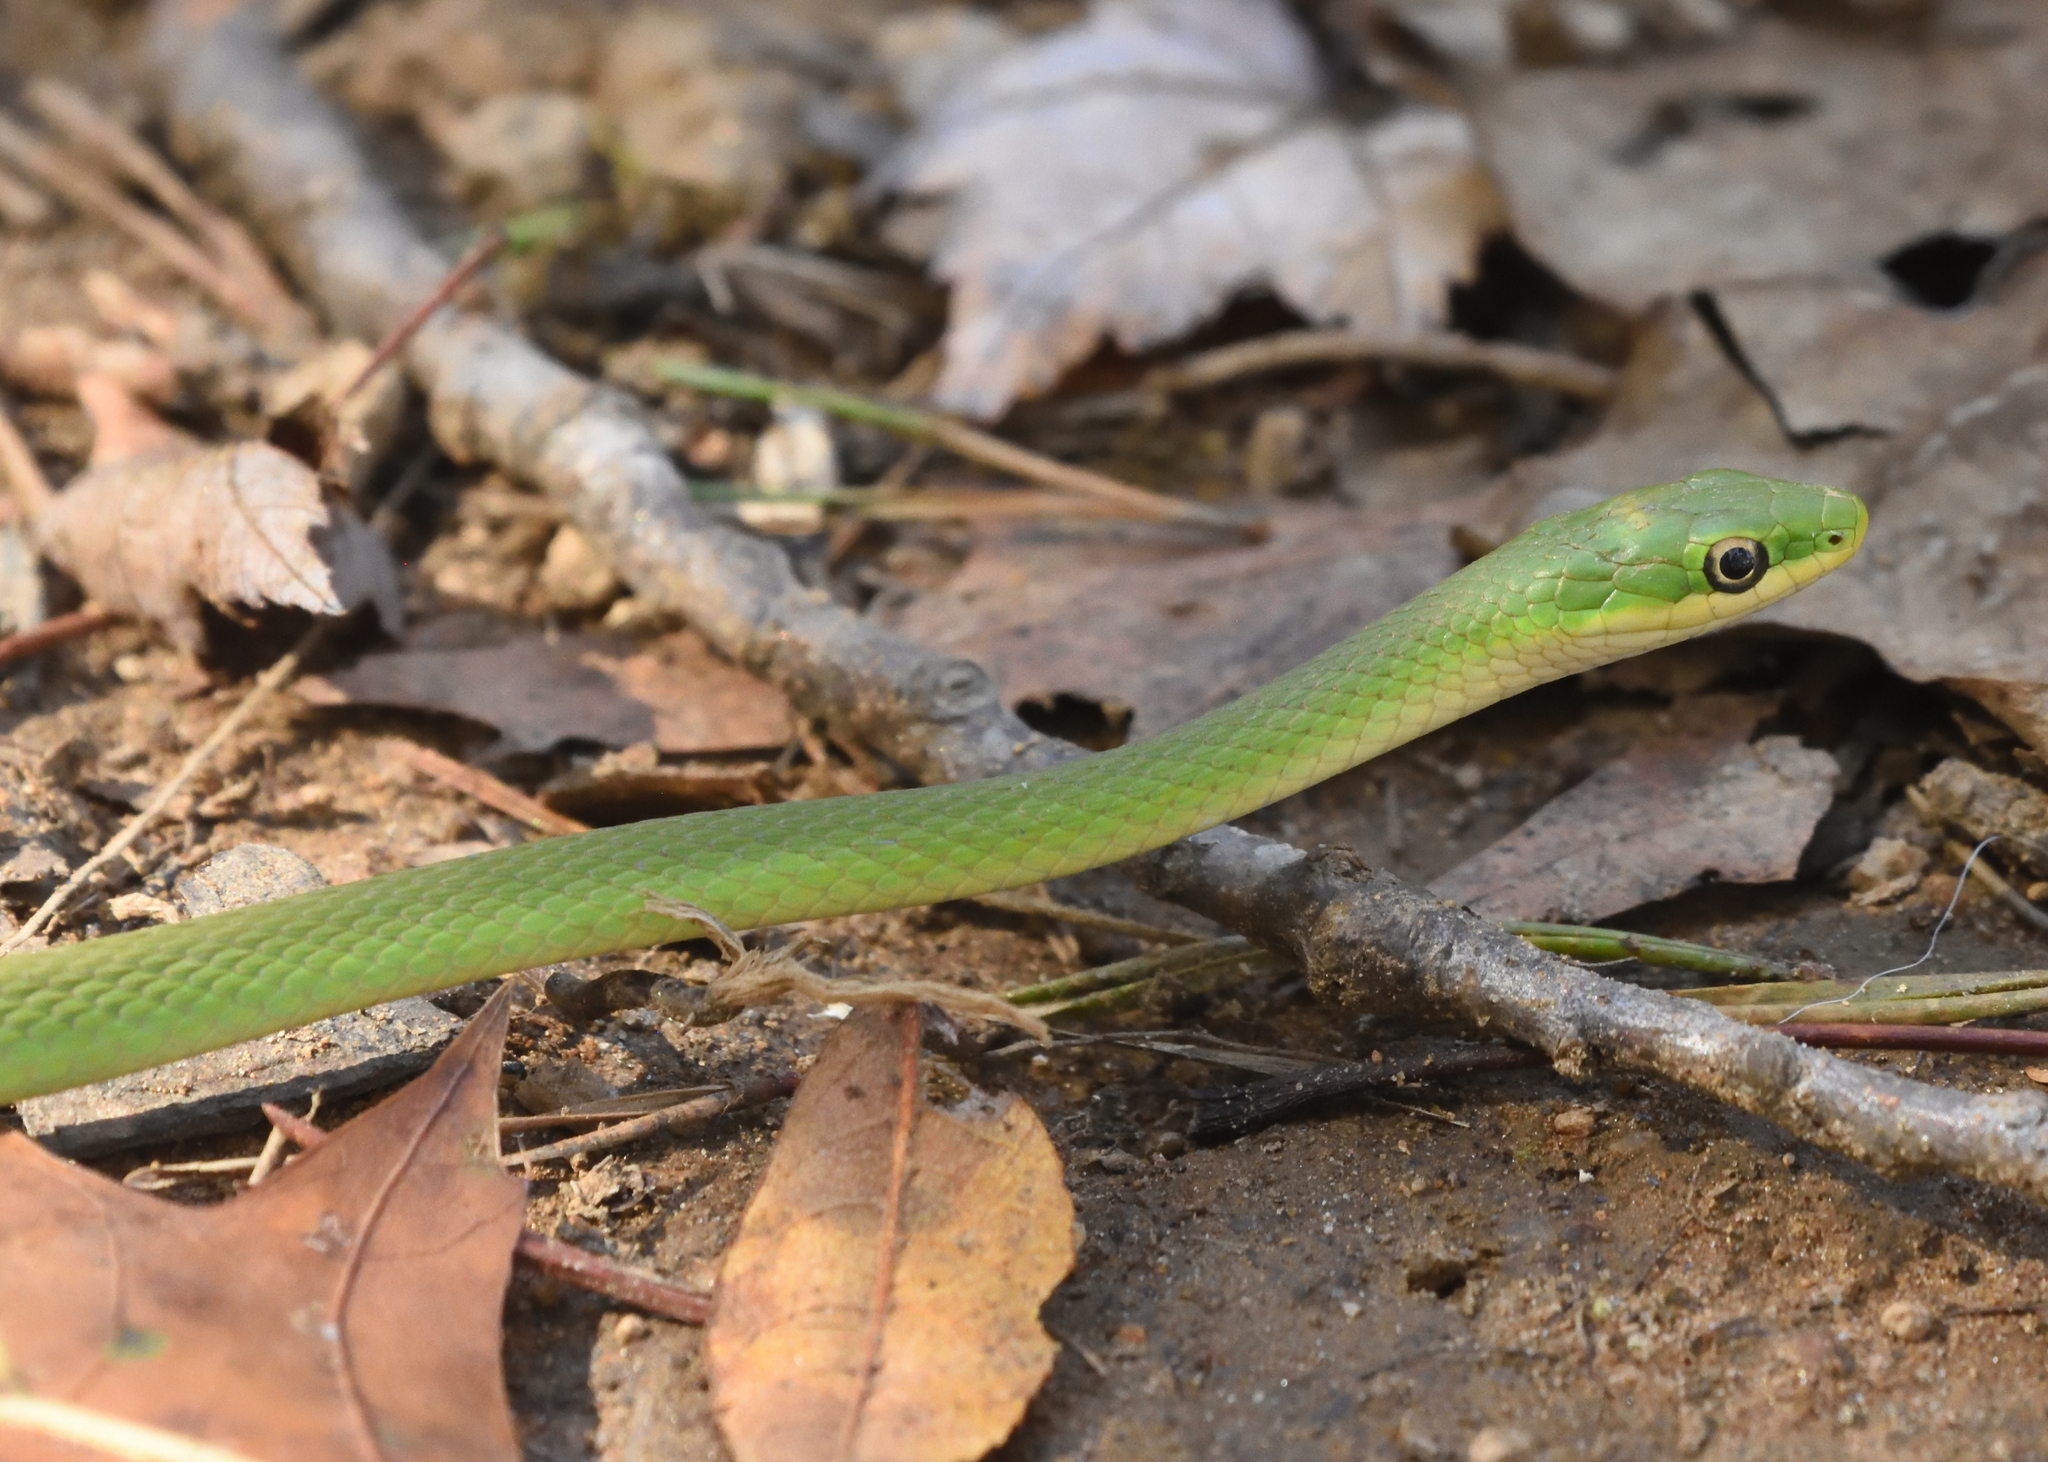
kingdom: Animalia
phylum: Chordata
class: Squamata
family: Colubridae
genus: Opheodrys
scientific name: Opheodrys aestivus
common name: Rough greensnake
